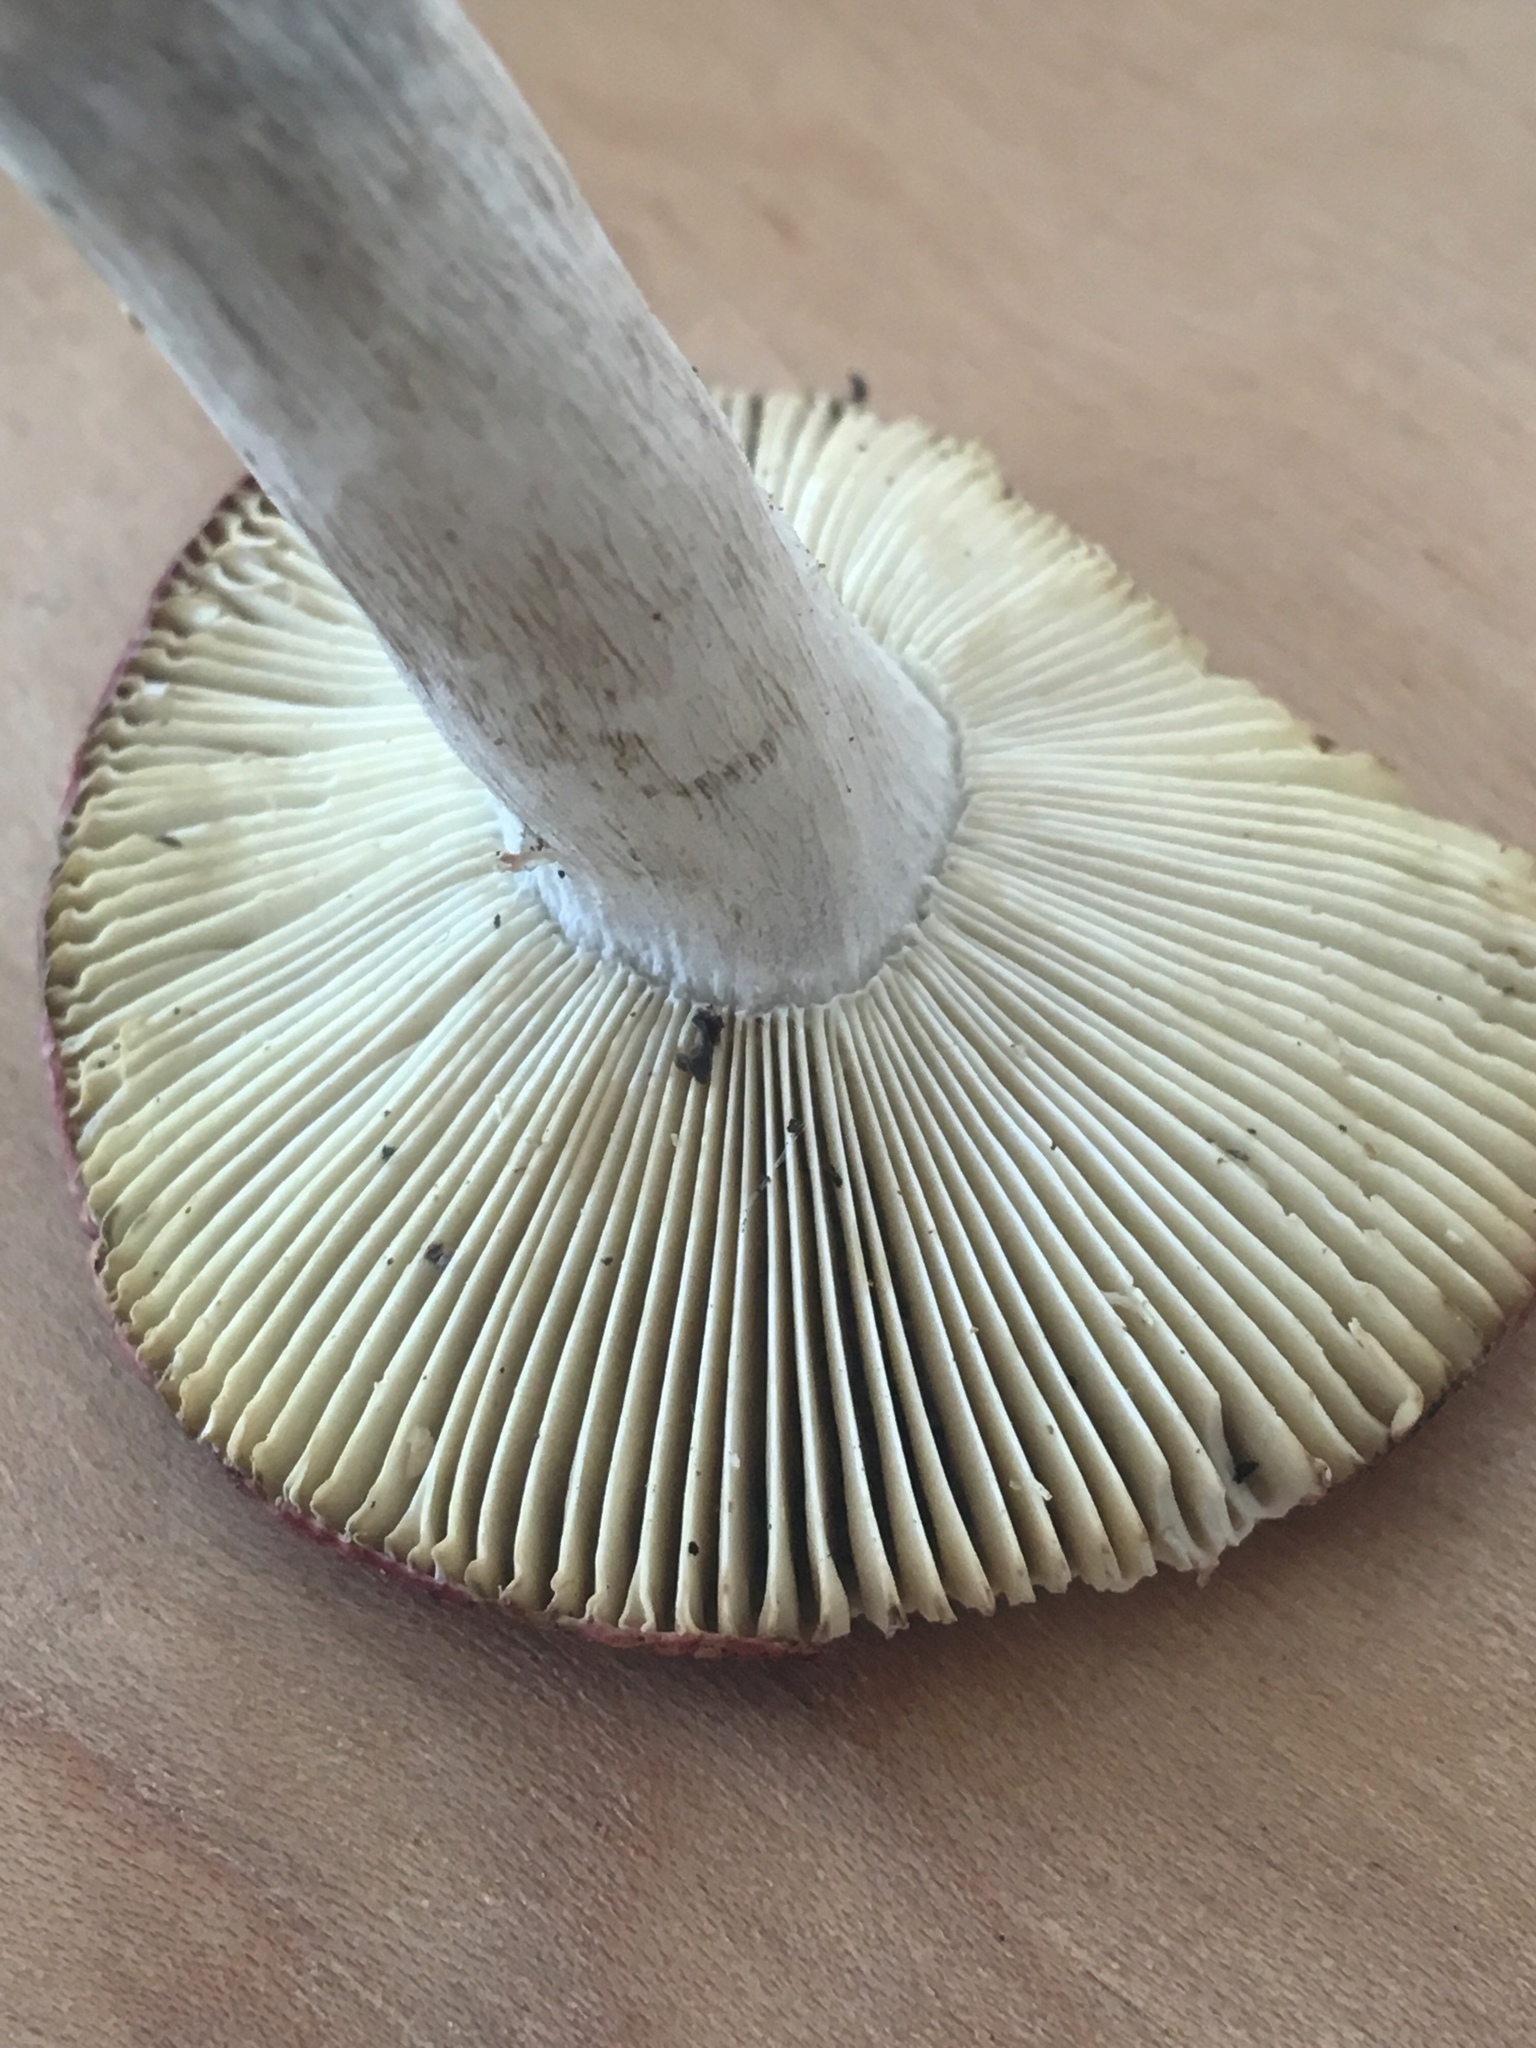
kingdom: Fungi
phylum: Basidiomycota
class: Agaricomycetes
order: Russulales
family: Russulaceae
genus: Russula
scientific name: Russula rubescens
